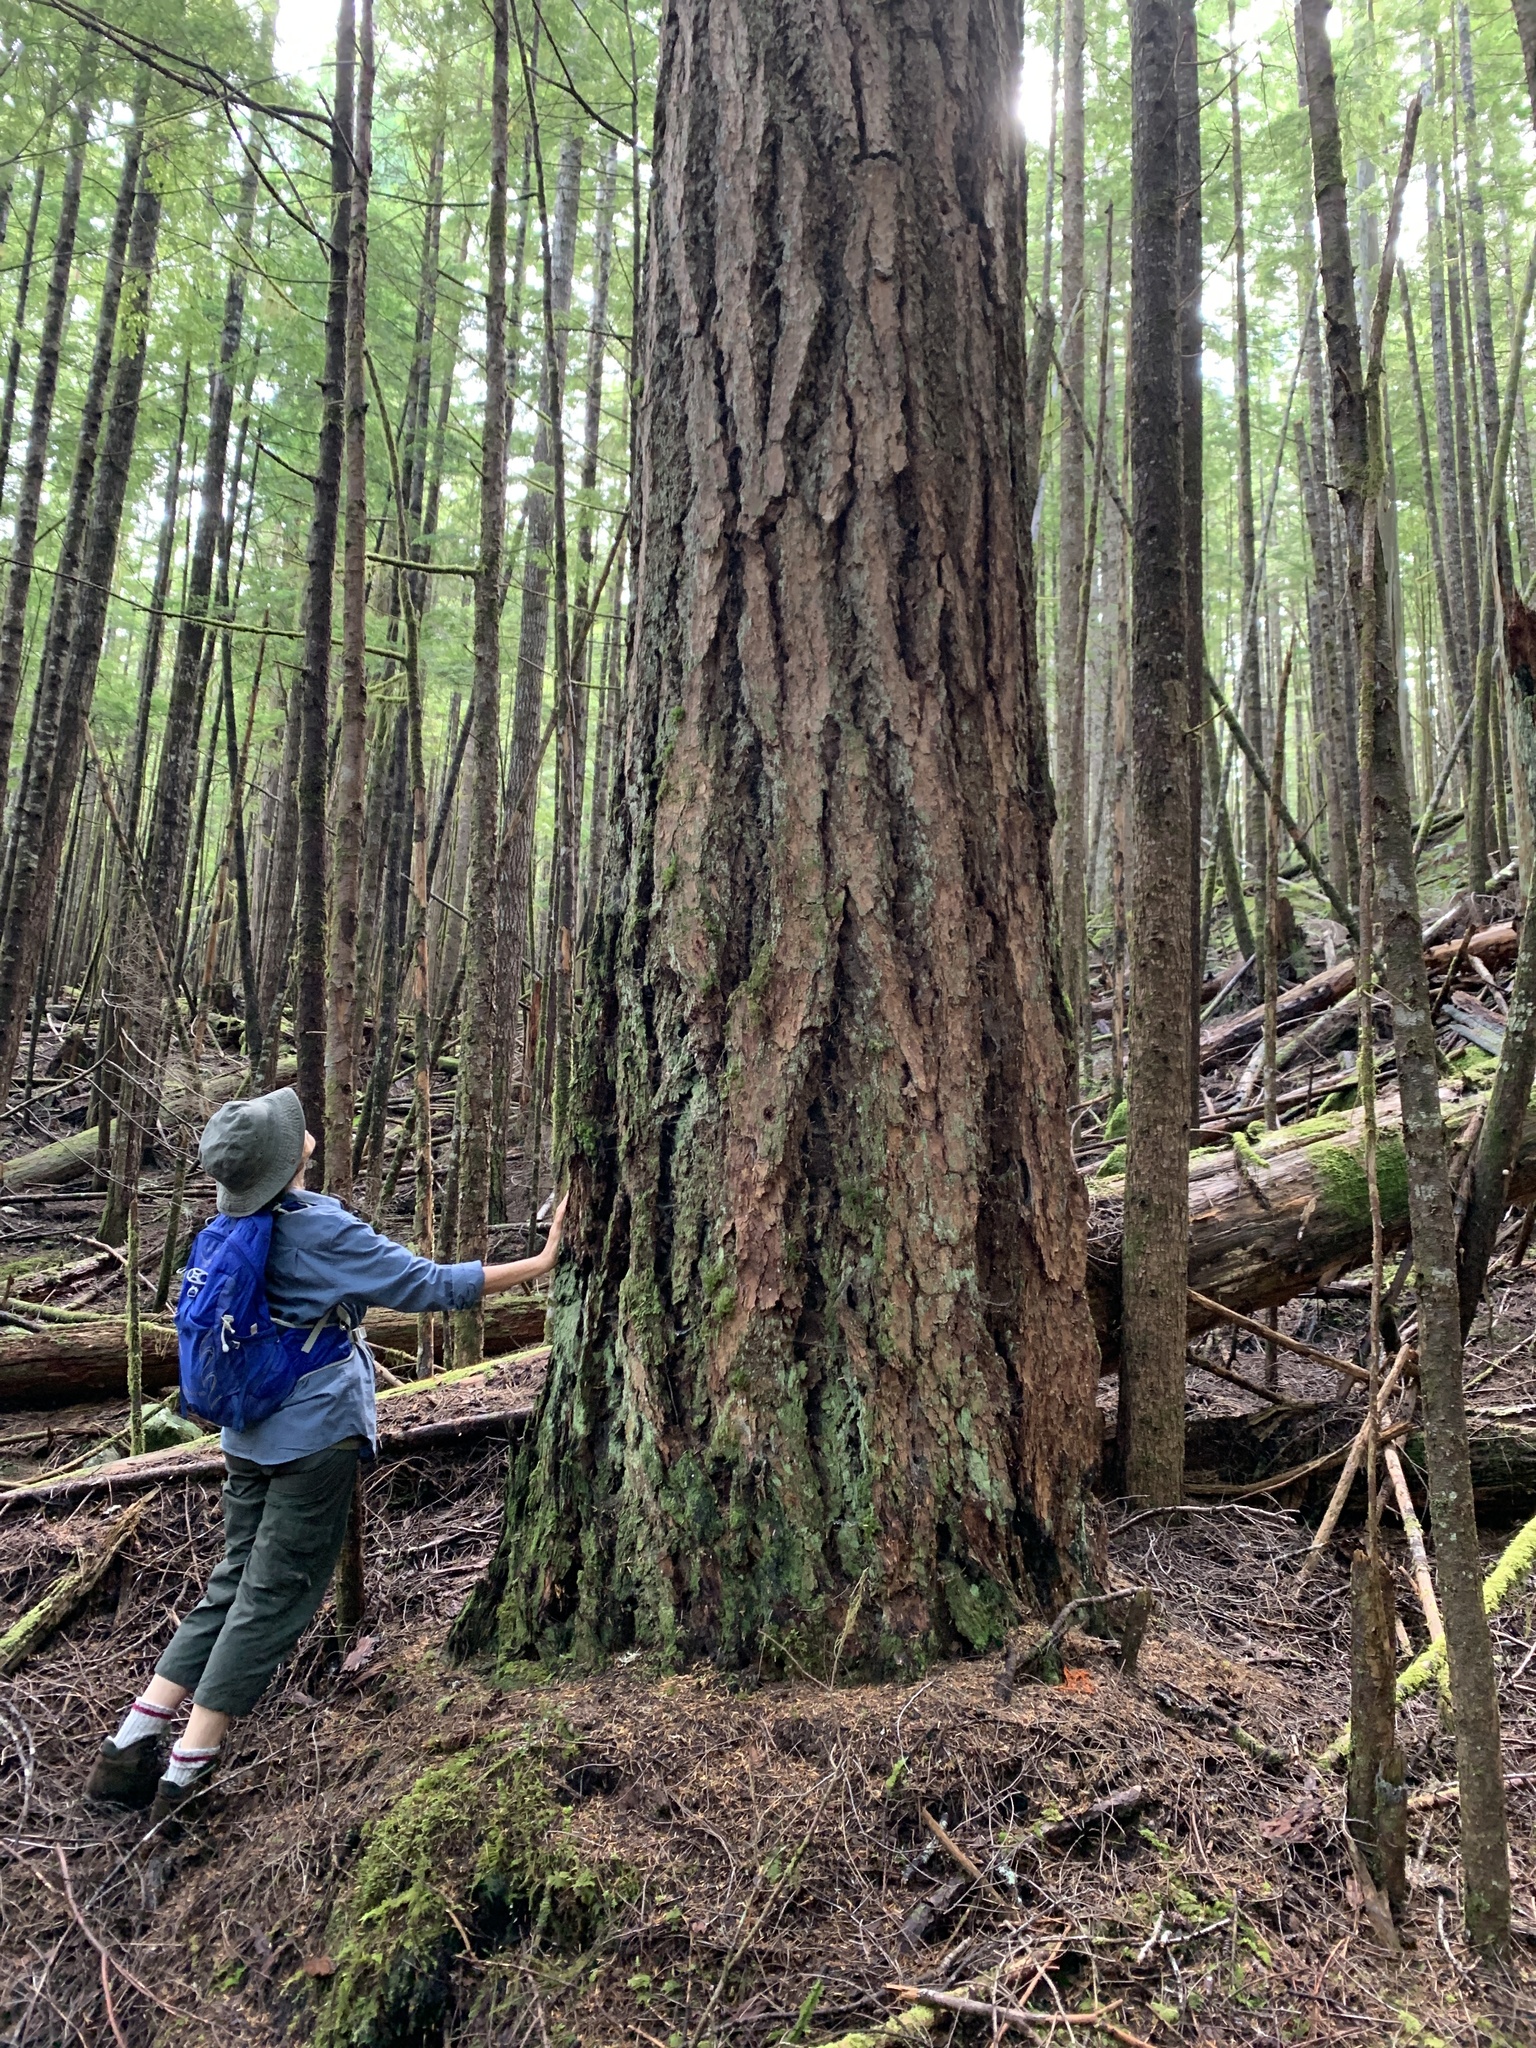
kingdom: Plantae
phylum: Tracheophyta
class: Pinopsida
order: Pinales
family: Pinaceae
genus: Pseudotsuga
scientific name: Pseudotsuga menziesii
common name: Douglas fir
